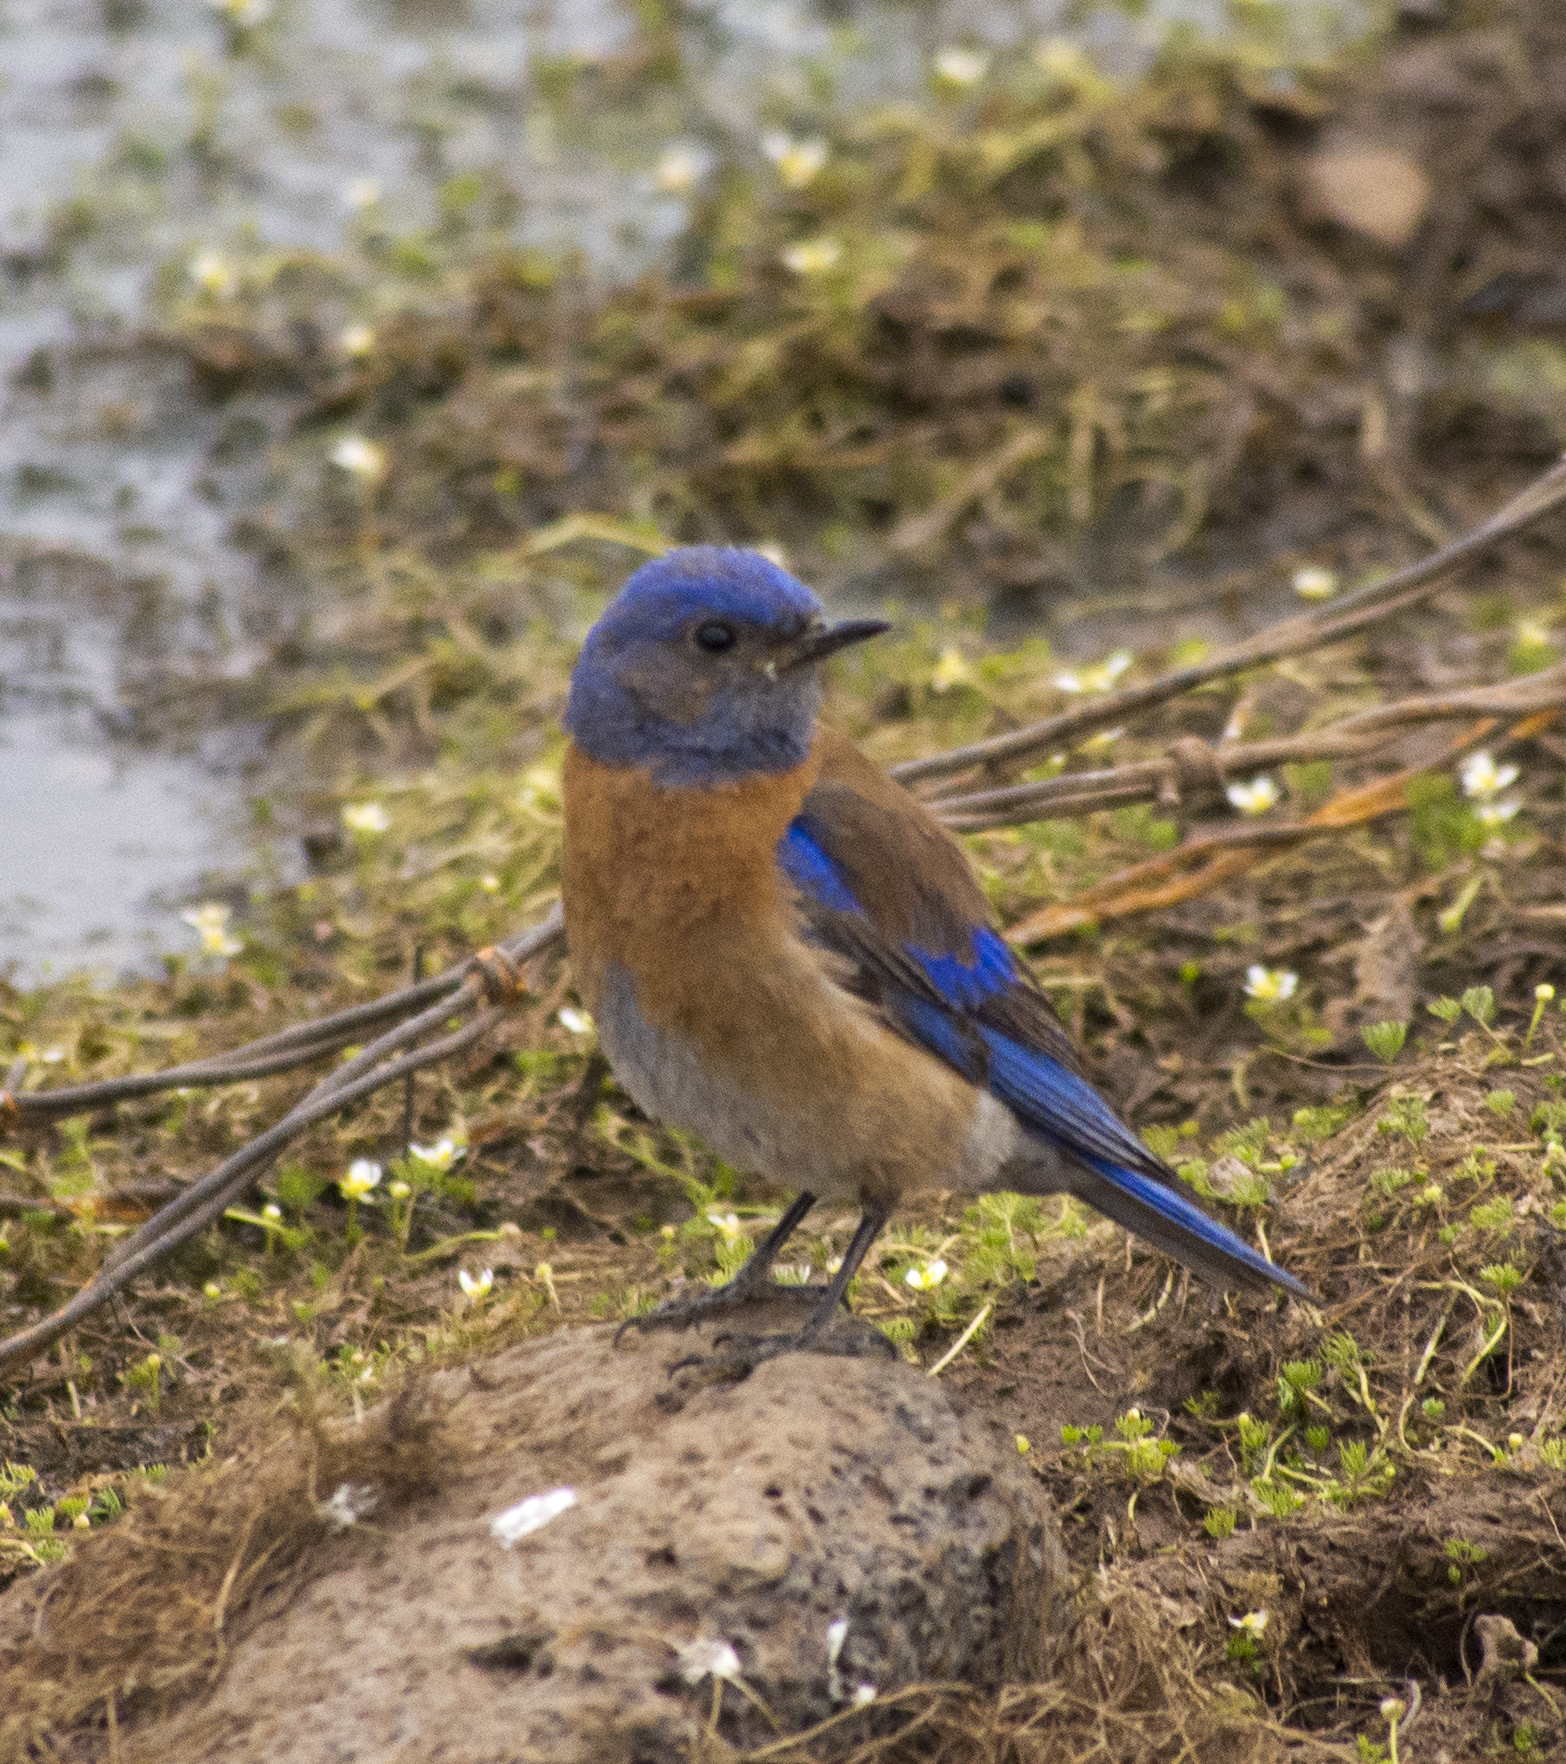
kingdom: Animalia
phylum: Chordata
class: Aves
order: Passeriformes
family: Turdidae
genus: Sialia
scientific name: Sialia mexicana
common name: Western bluebird
